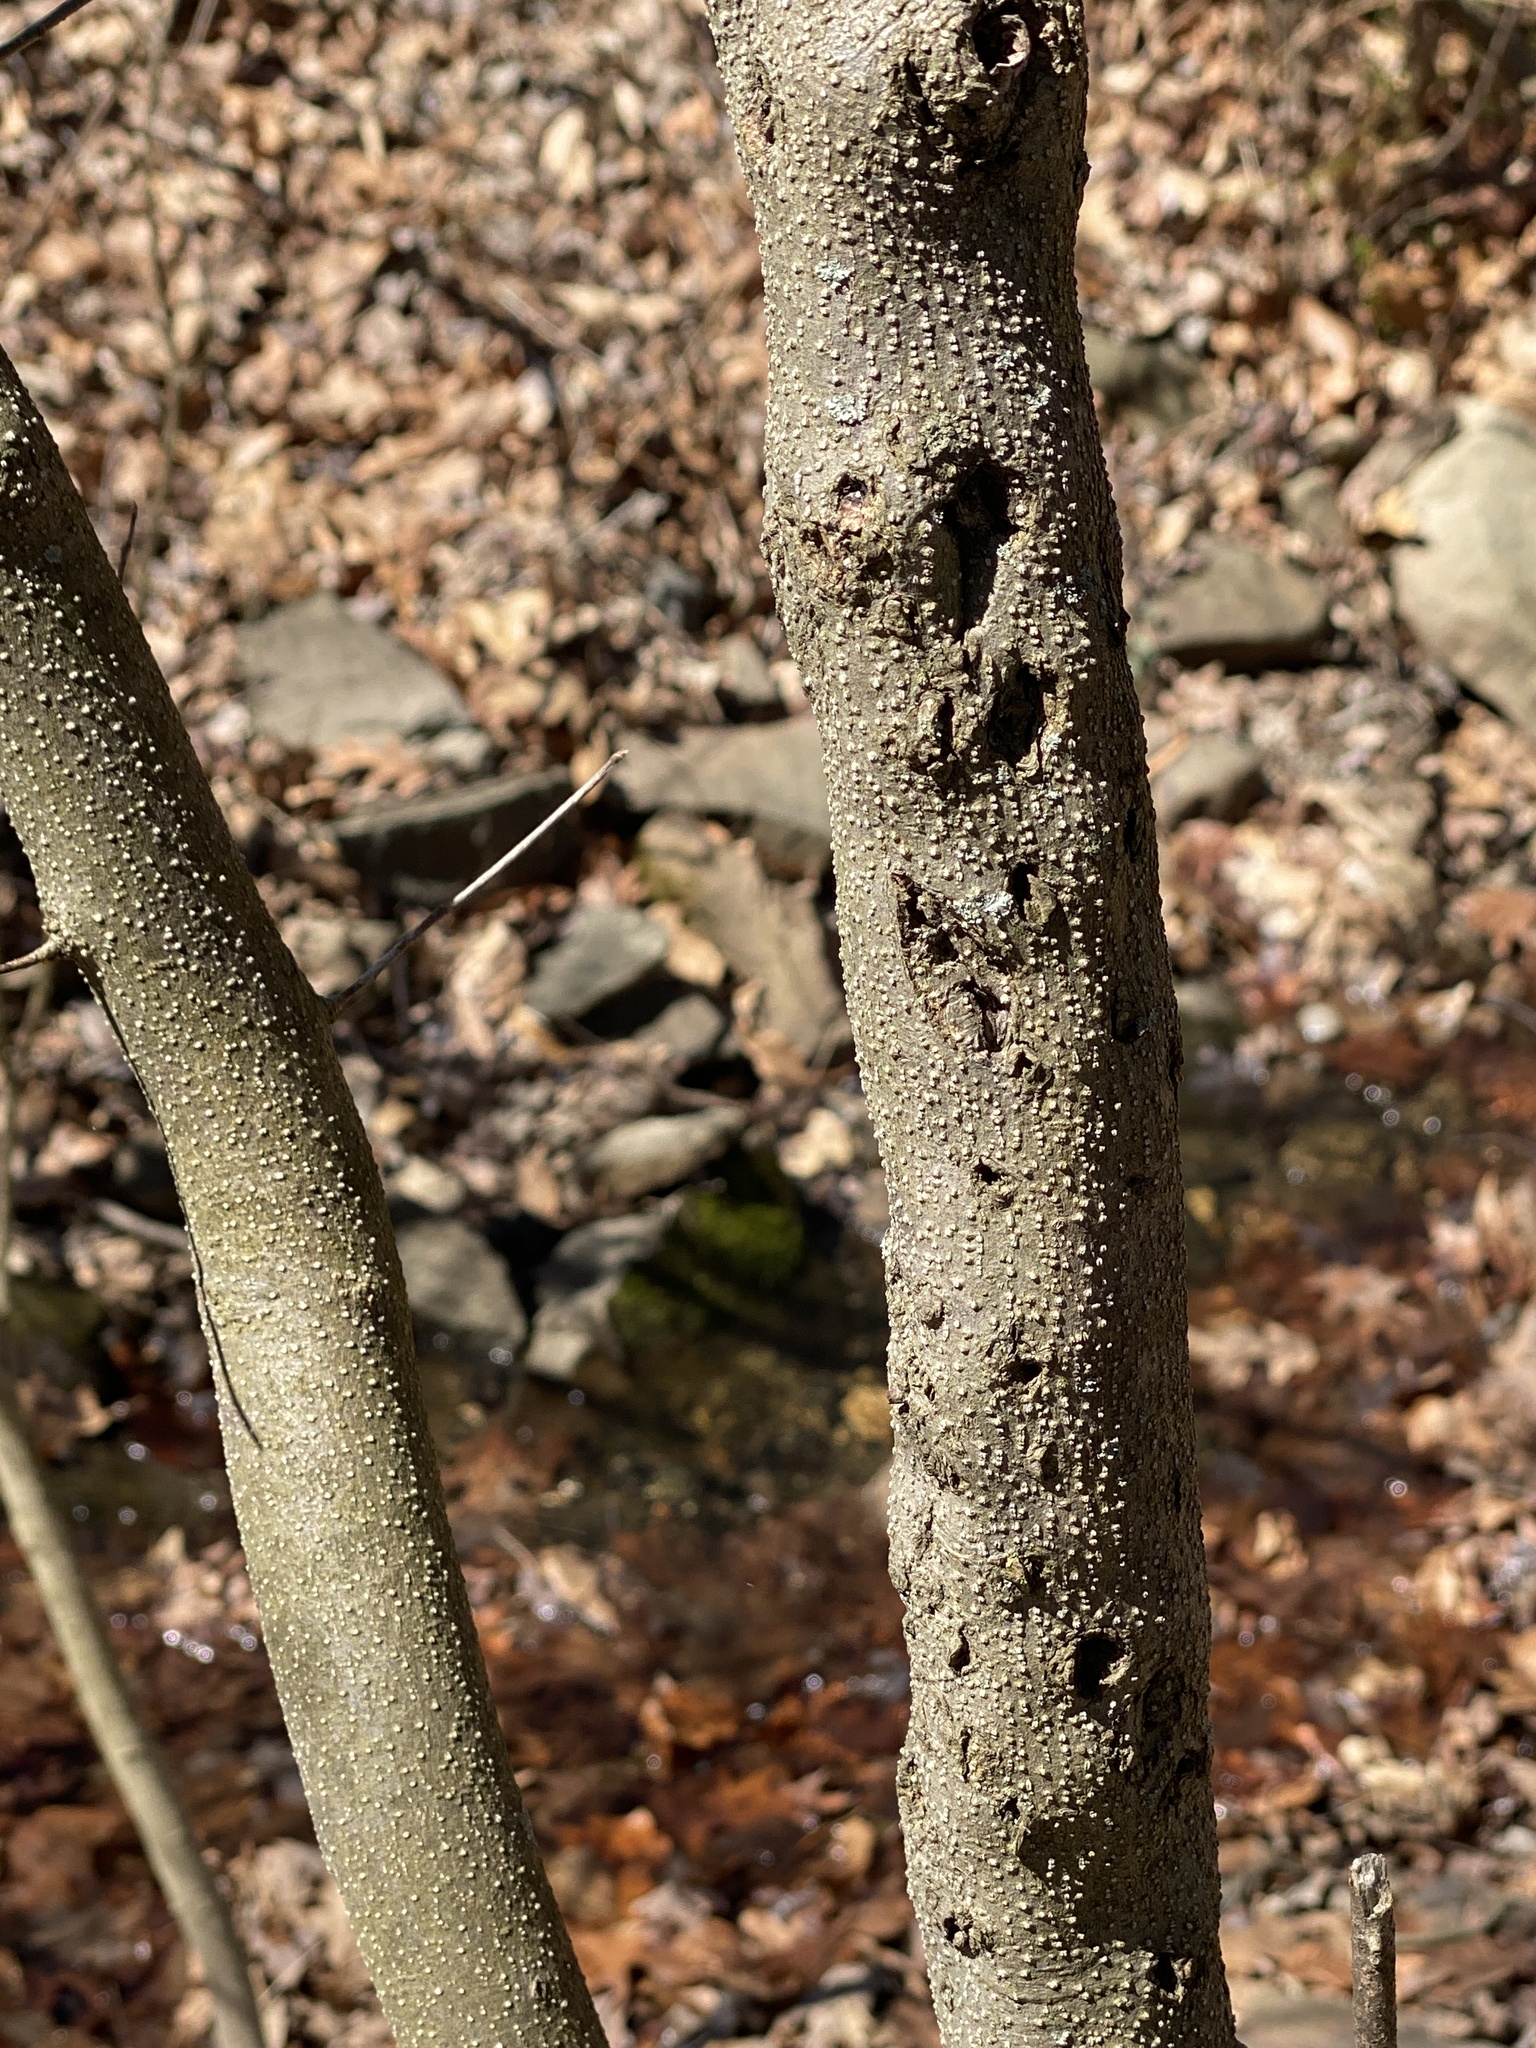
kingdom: Plantae
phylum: Tracheophyta
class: Magnoliopsida
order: Laurales
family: Lauraceae
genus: Lindera
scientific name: Lindera benzoin
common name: Spicebush
